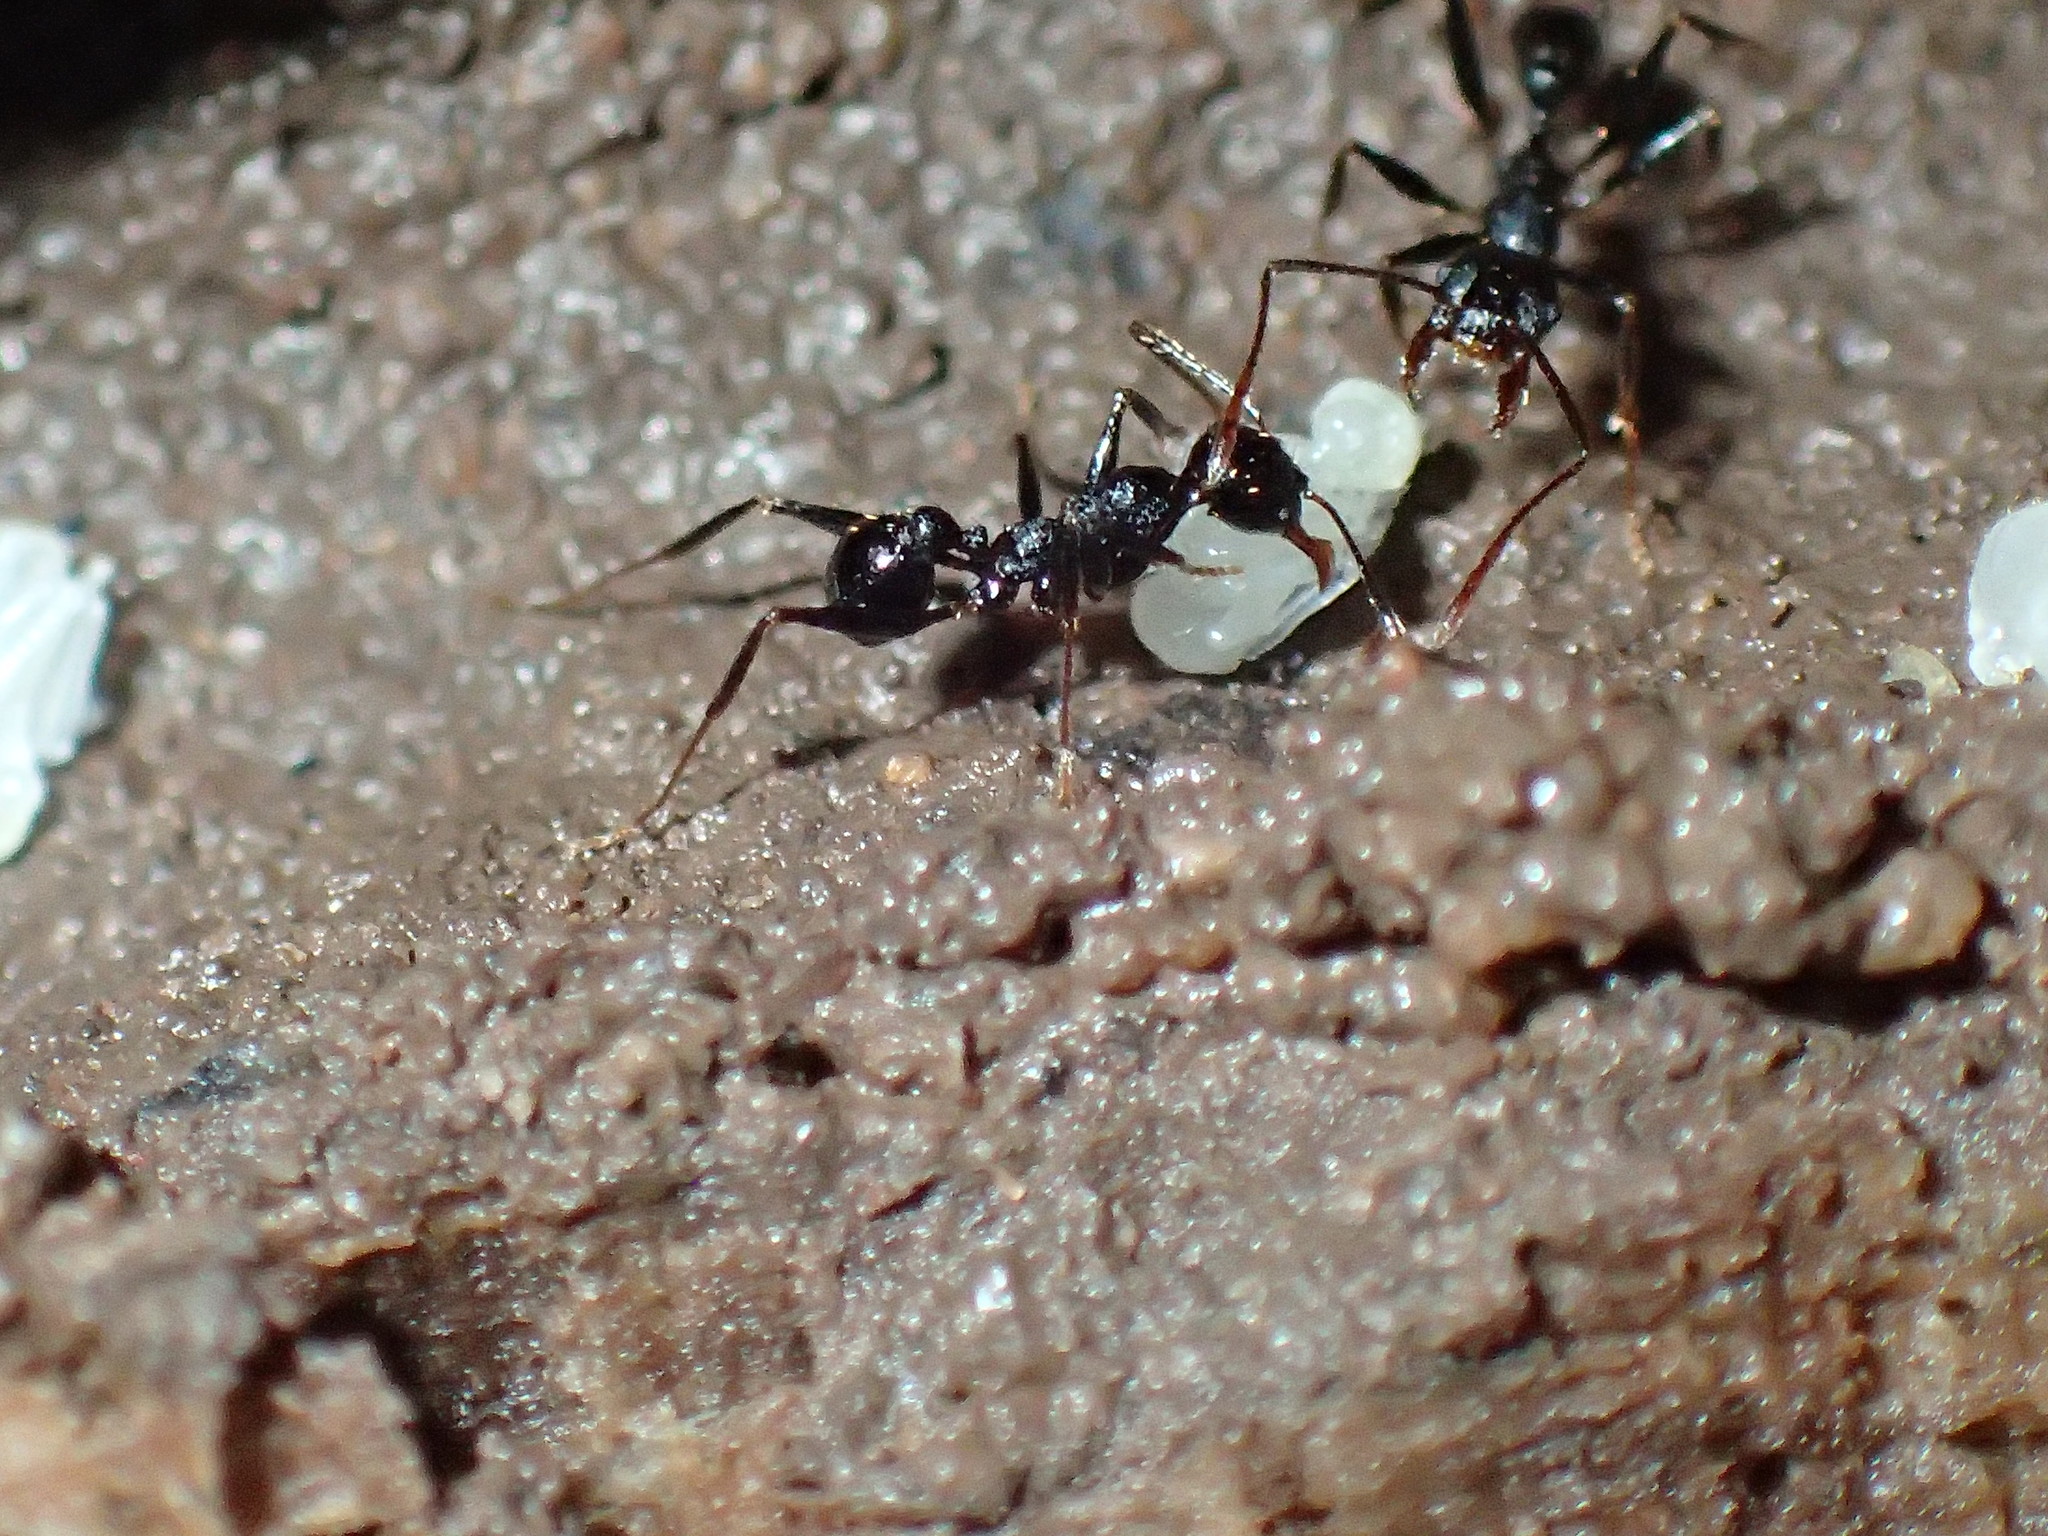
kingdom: Animalia
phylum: Arthropoda
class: Insecta
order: Hymenoptera
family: Formicidae
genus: Pheidole
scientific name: Pheidole foreli
